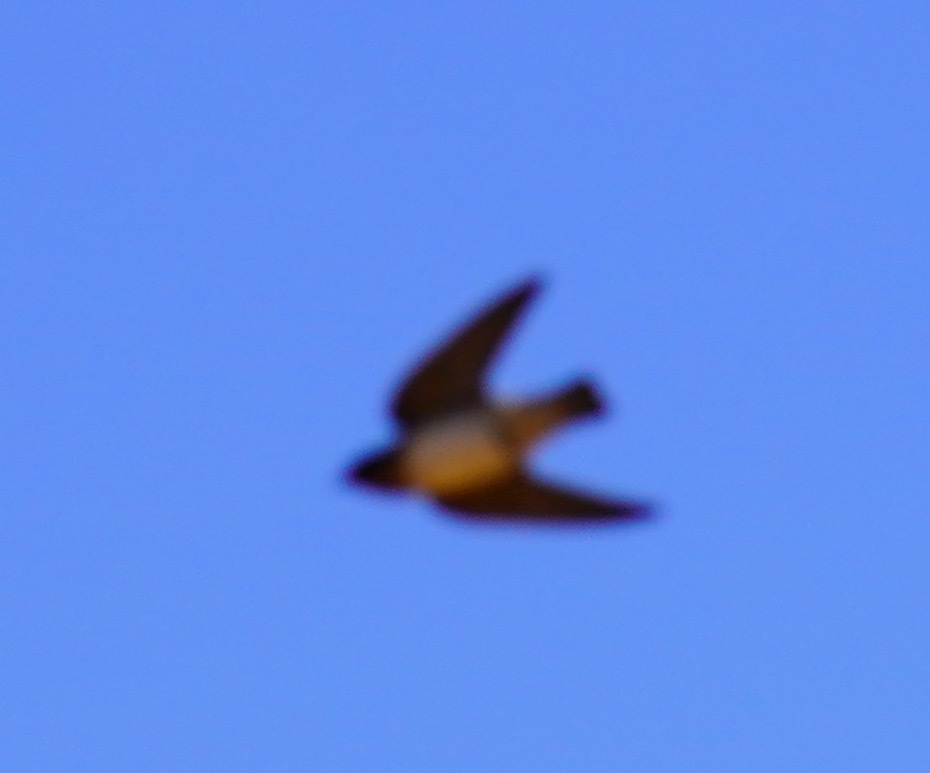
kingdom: Animalia
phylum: Chordata
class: Aves
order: Passeriformes
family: Hirundinidae
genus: Petrochelidon
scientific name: Petrochelidon pyrrhonota
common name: American cliff swallow
